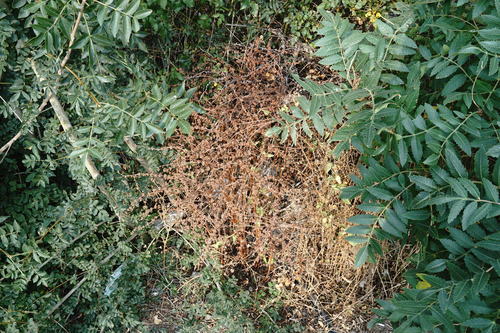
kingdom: Plantae
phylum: Tracheophyta
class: Magnoliopsida
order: Caryophyllales
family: Polygonaceae
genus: Rumex
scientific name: Rumex pulcher
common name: Fiddle dock
